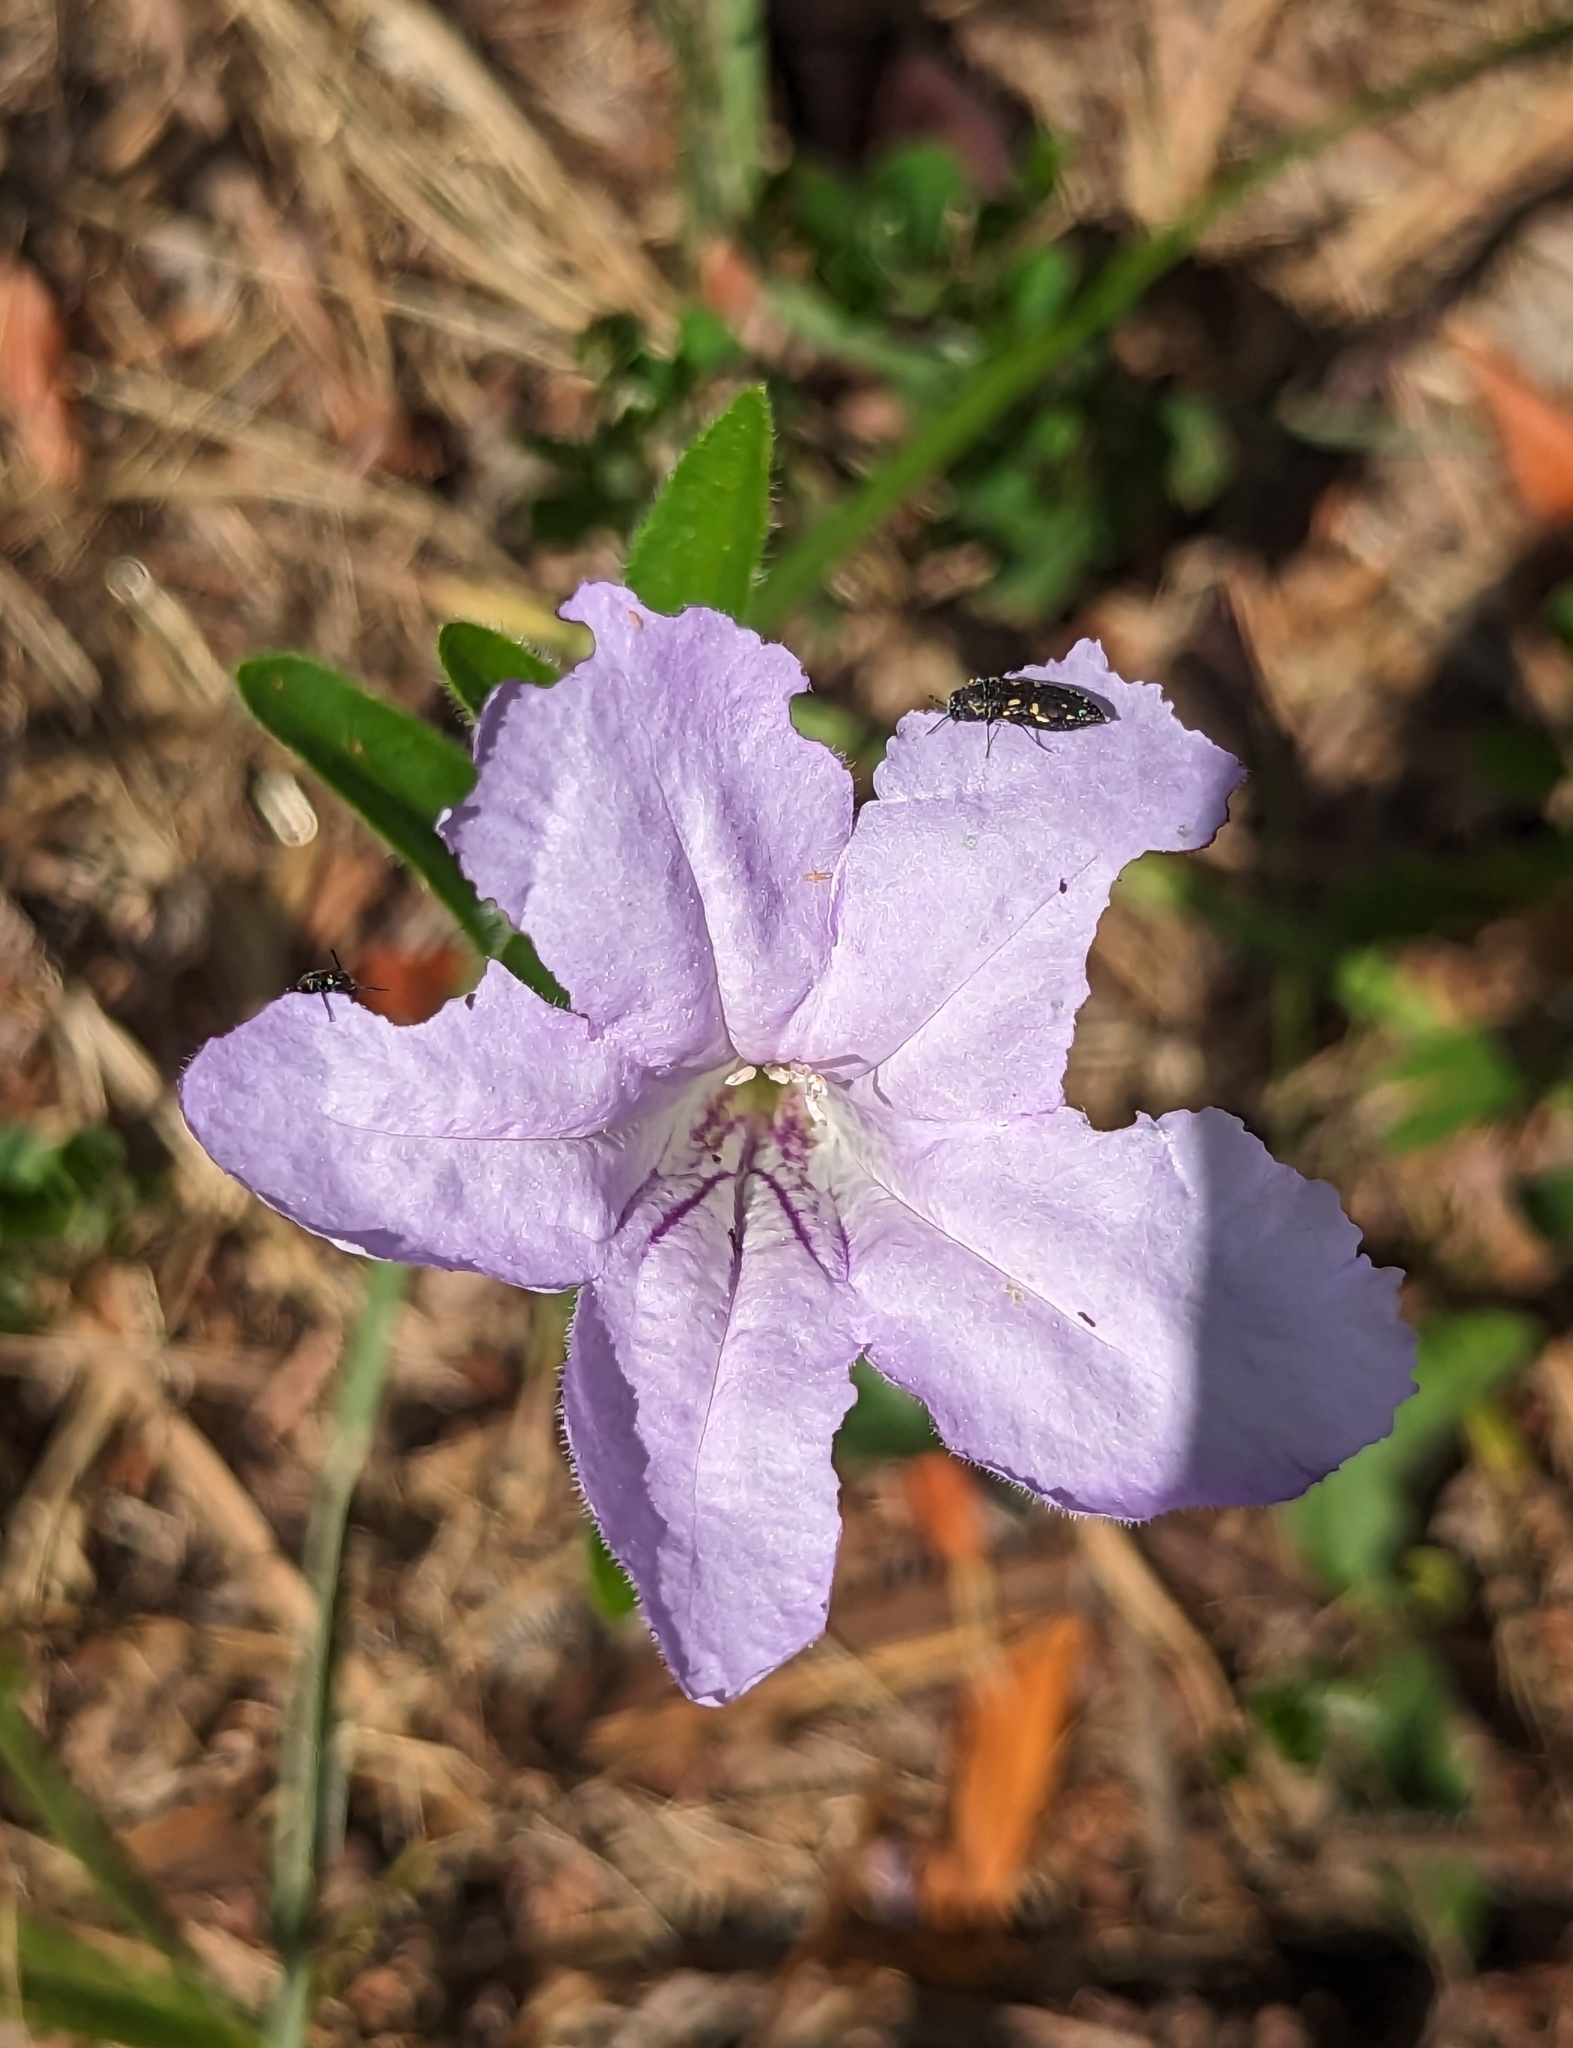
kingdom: Plantae
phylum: Tracheophyta
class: Magnoliopsida
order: Lamiales
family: Acanthaceae
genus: Ruellia
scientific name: Ruellia humilis
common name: Fringe-leaf ruellia
